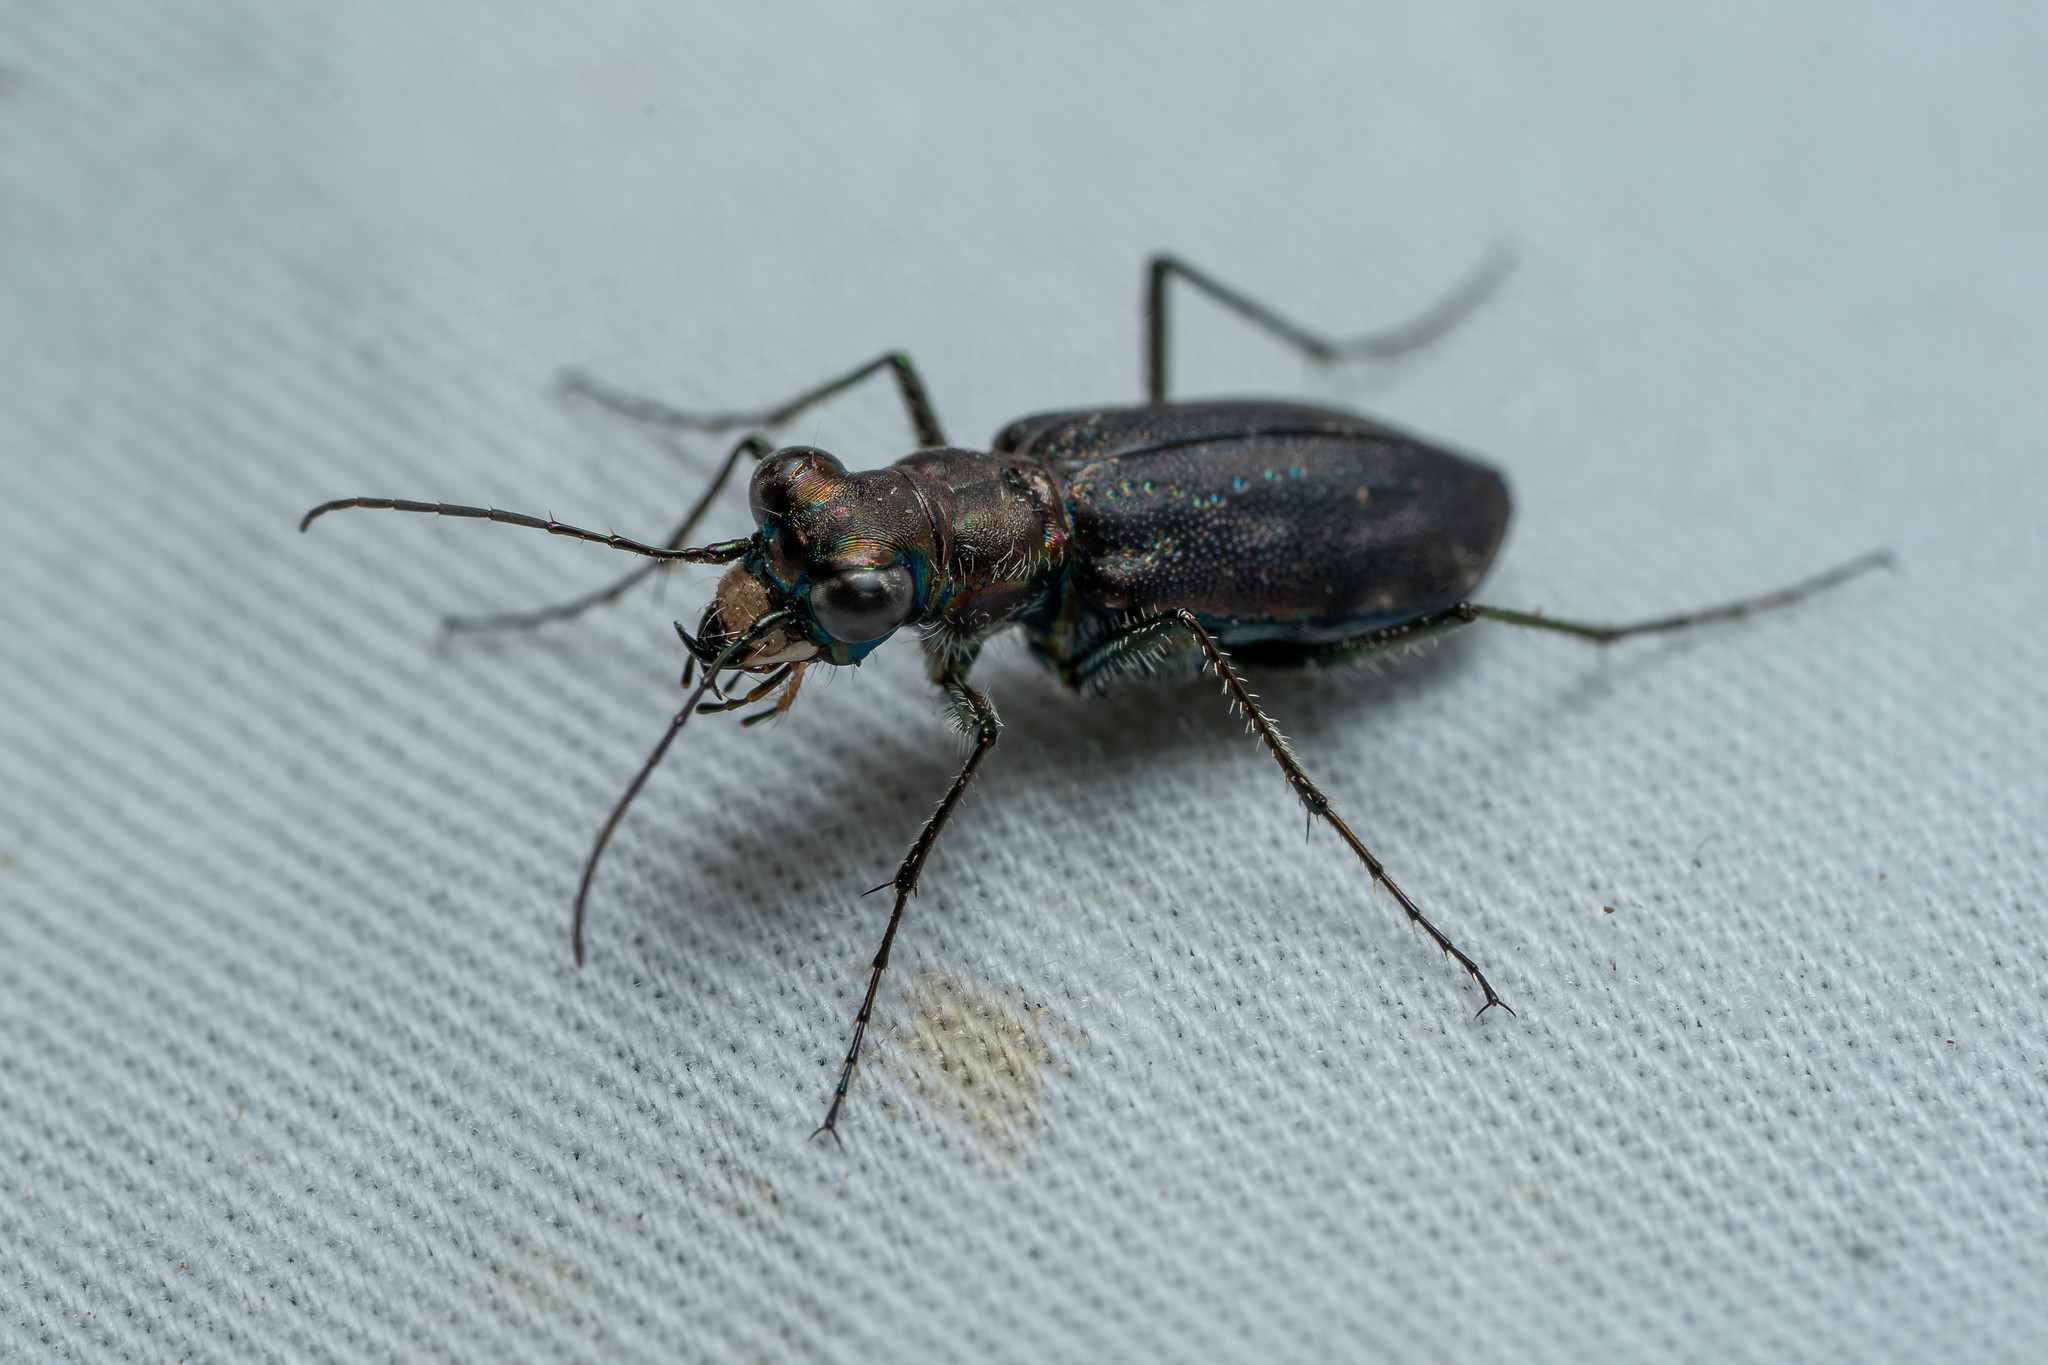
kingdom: Animalia
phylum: Arthropoda
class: Insecta
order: Coleoptera
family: Carabidae
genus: Cicindela
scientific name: Cicindela punctulata
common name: Punctured tiger beetle
